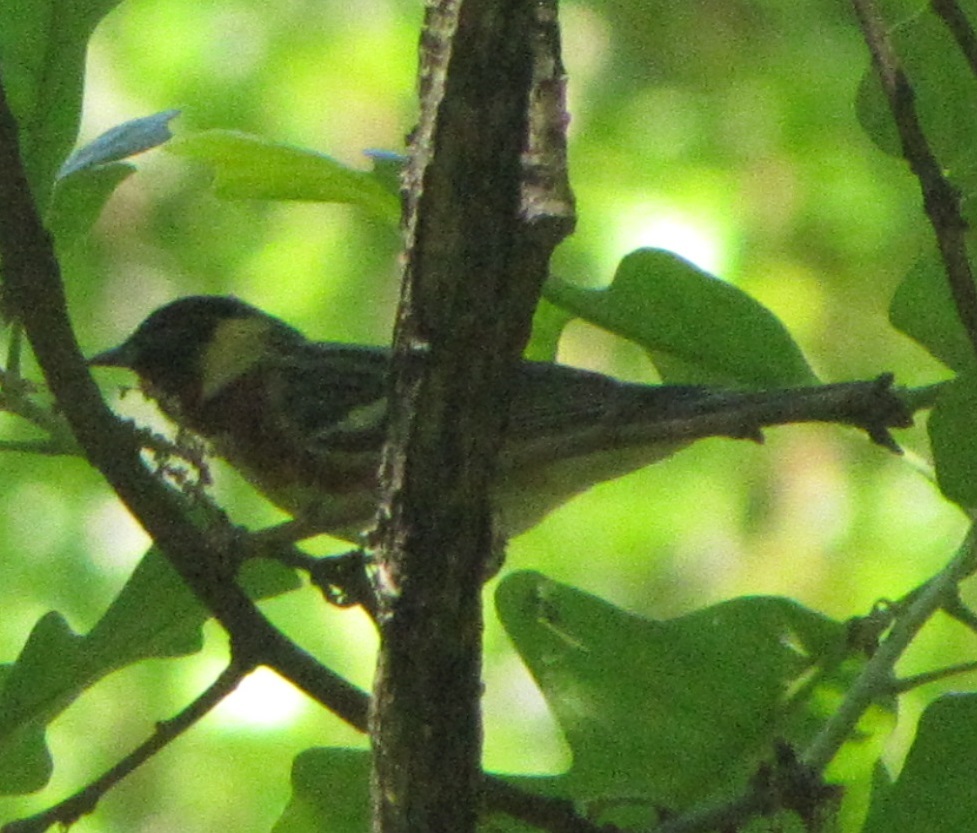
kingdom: Animalia
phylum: Chordata
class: Aves
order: Passeriformes
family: Parulidae
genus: Setophaga
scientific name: Setophaga castanea
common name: Bay-breasted warbler
